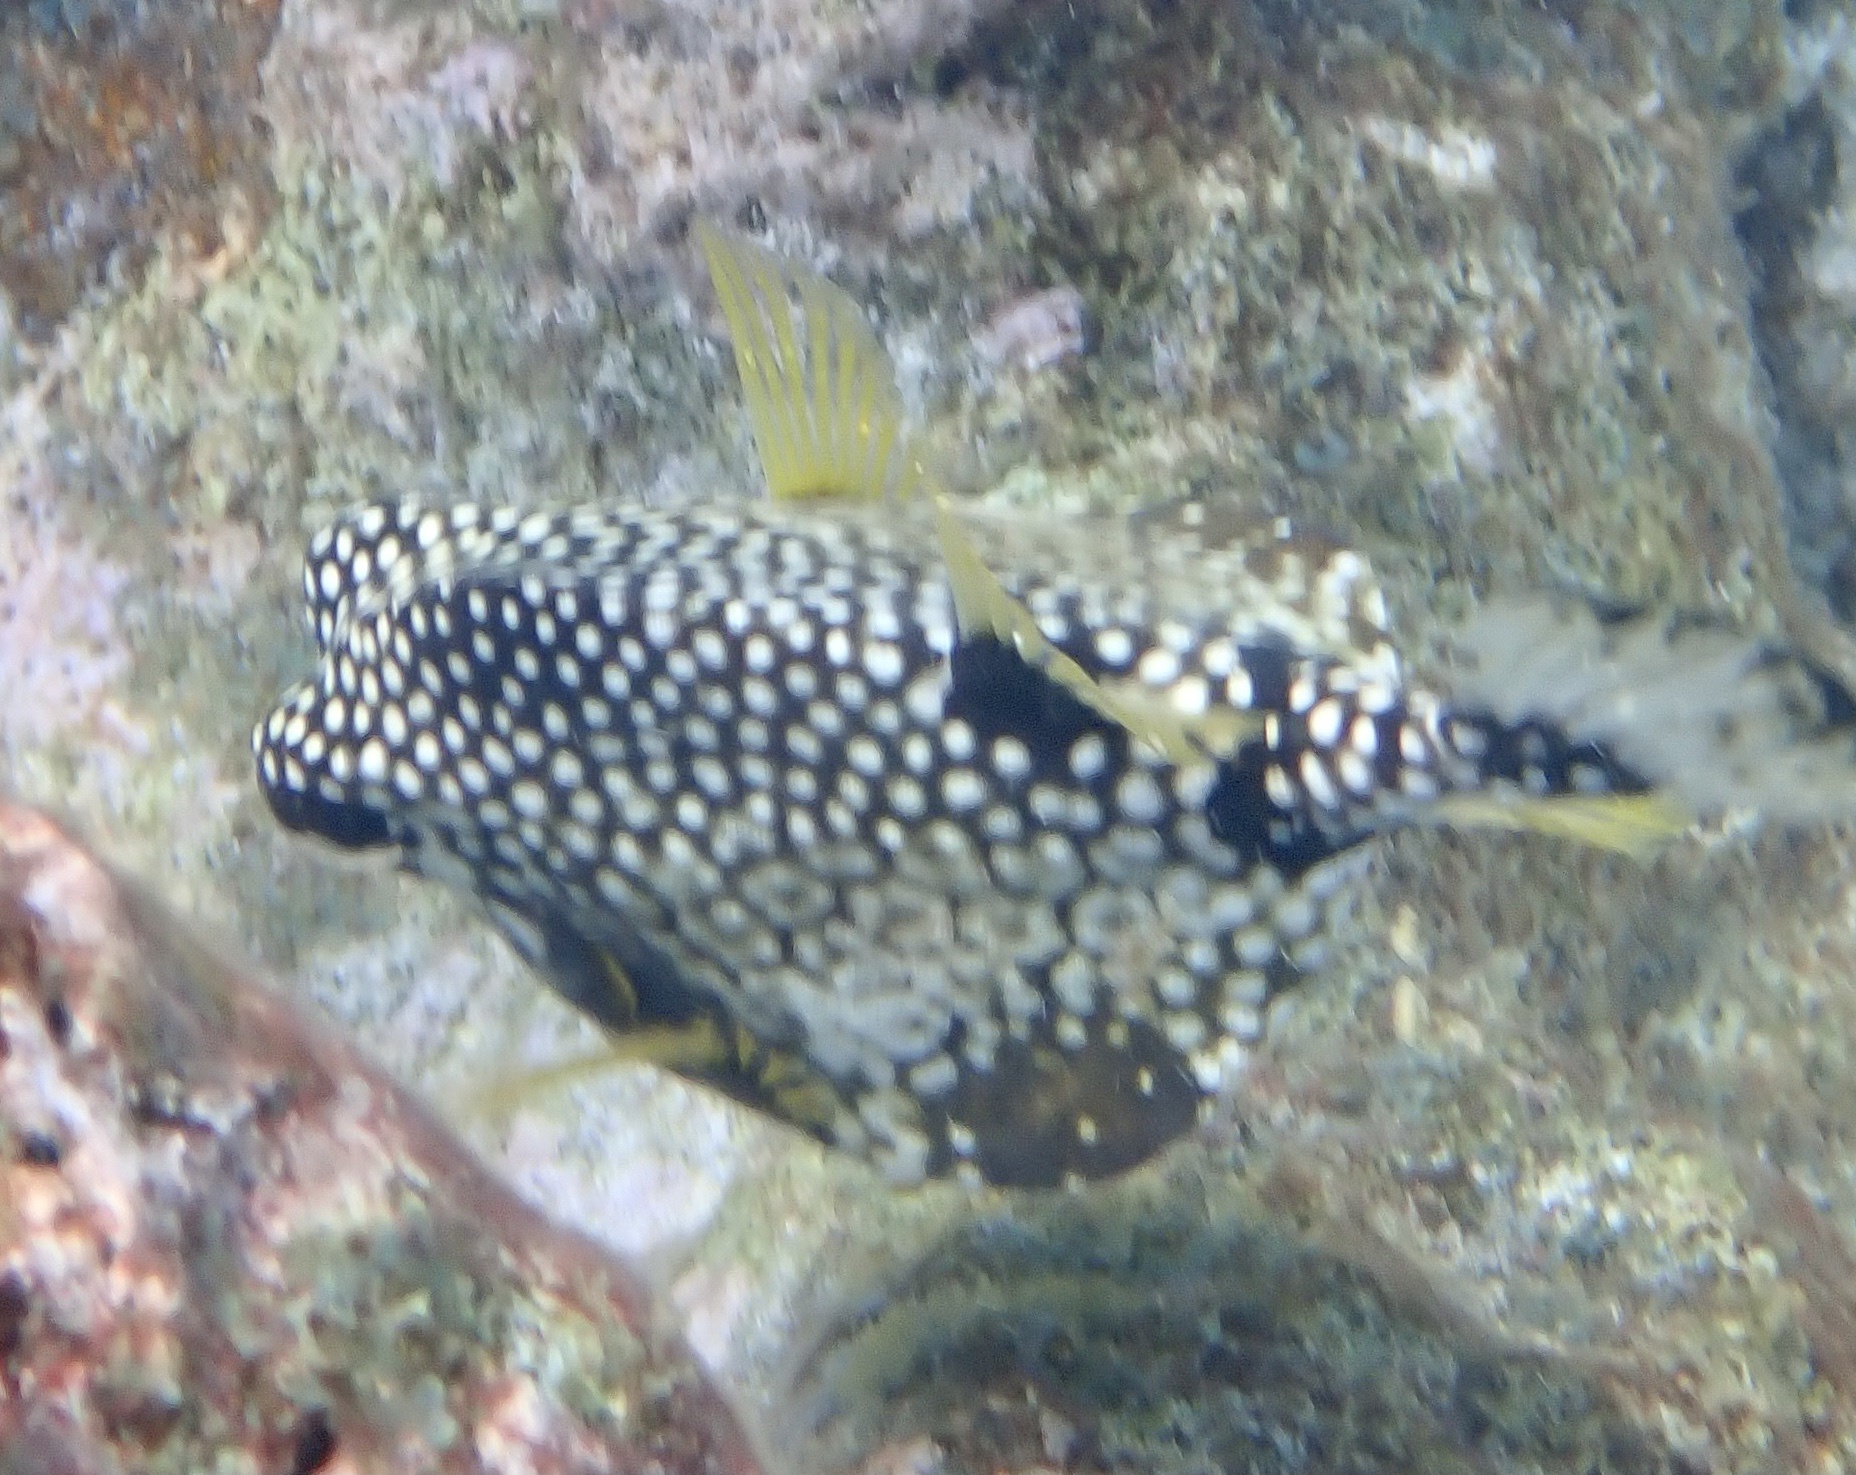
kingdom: Animalia
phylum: Chordata
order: Tetraodontiformes
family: Ostraciidae
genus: Lactophrys
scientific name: Lactophrys triqueter
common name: Smooth trunkfish
